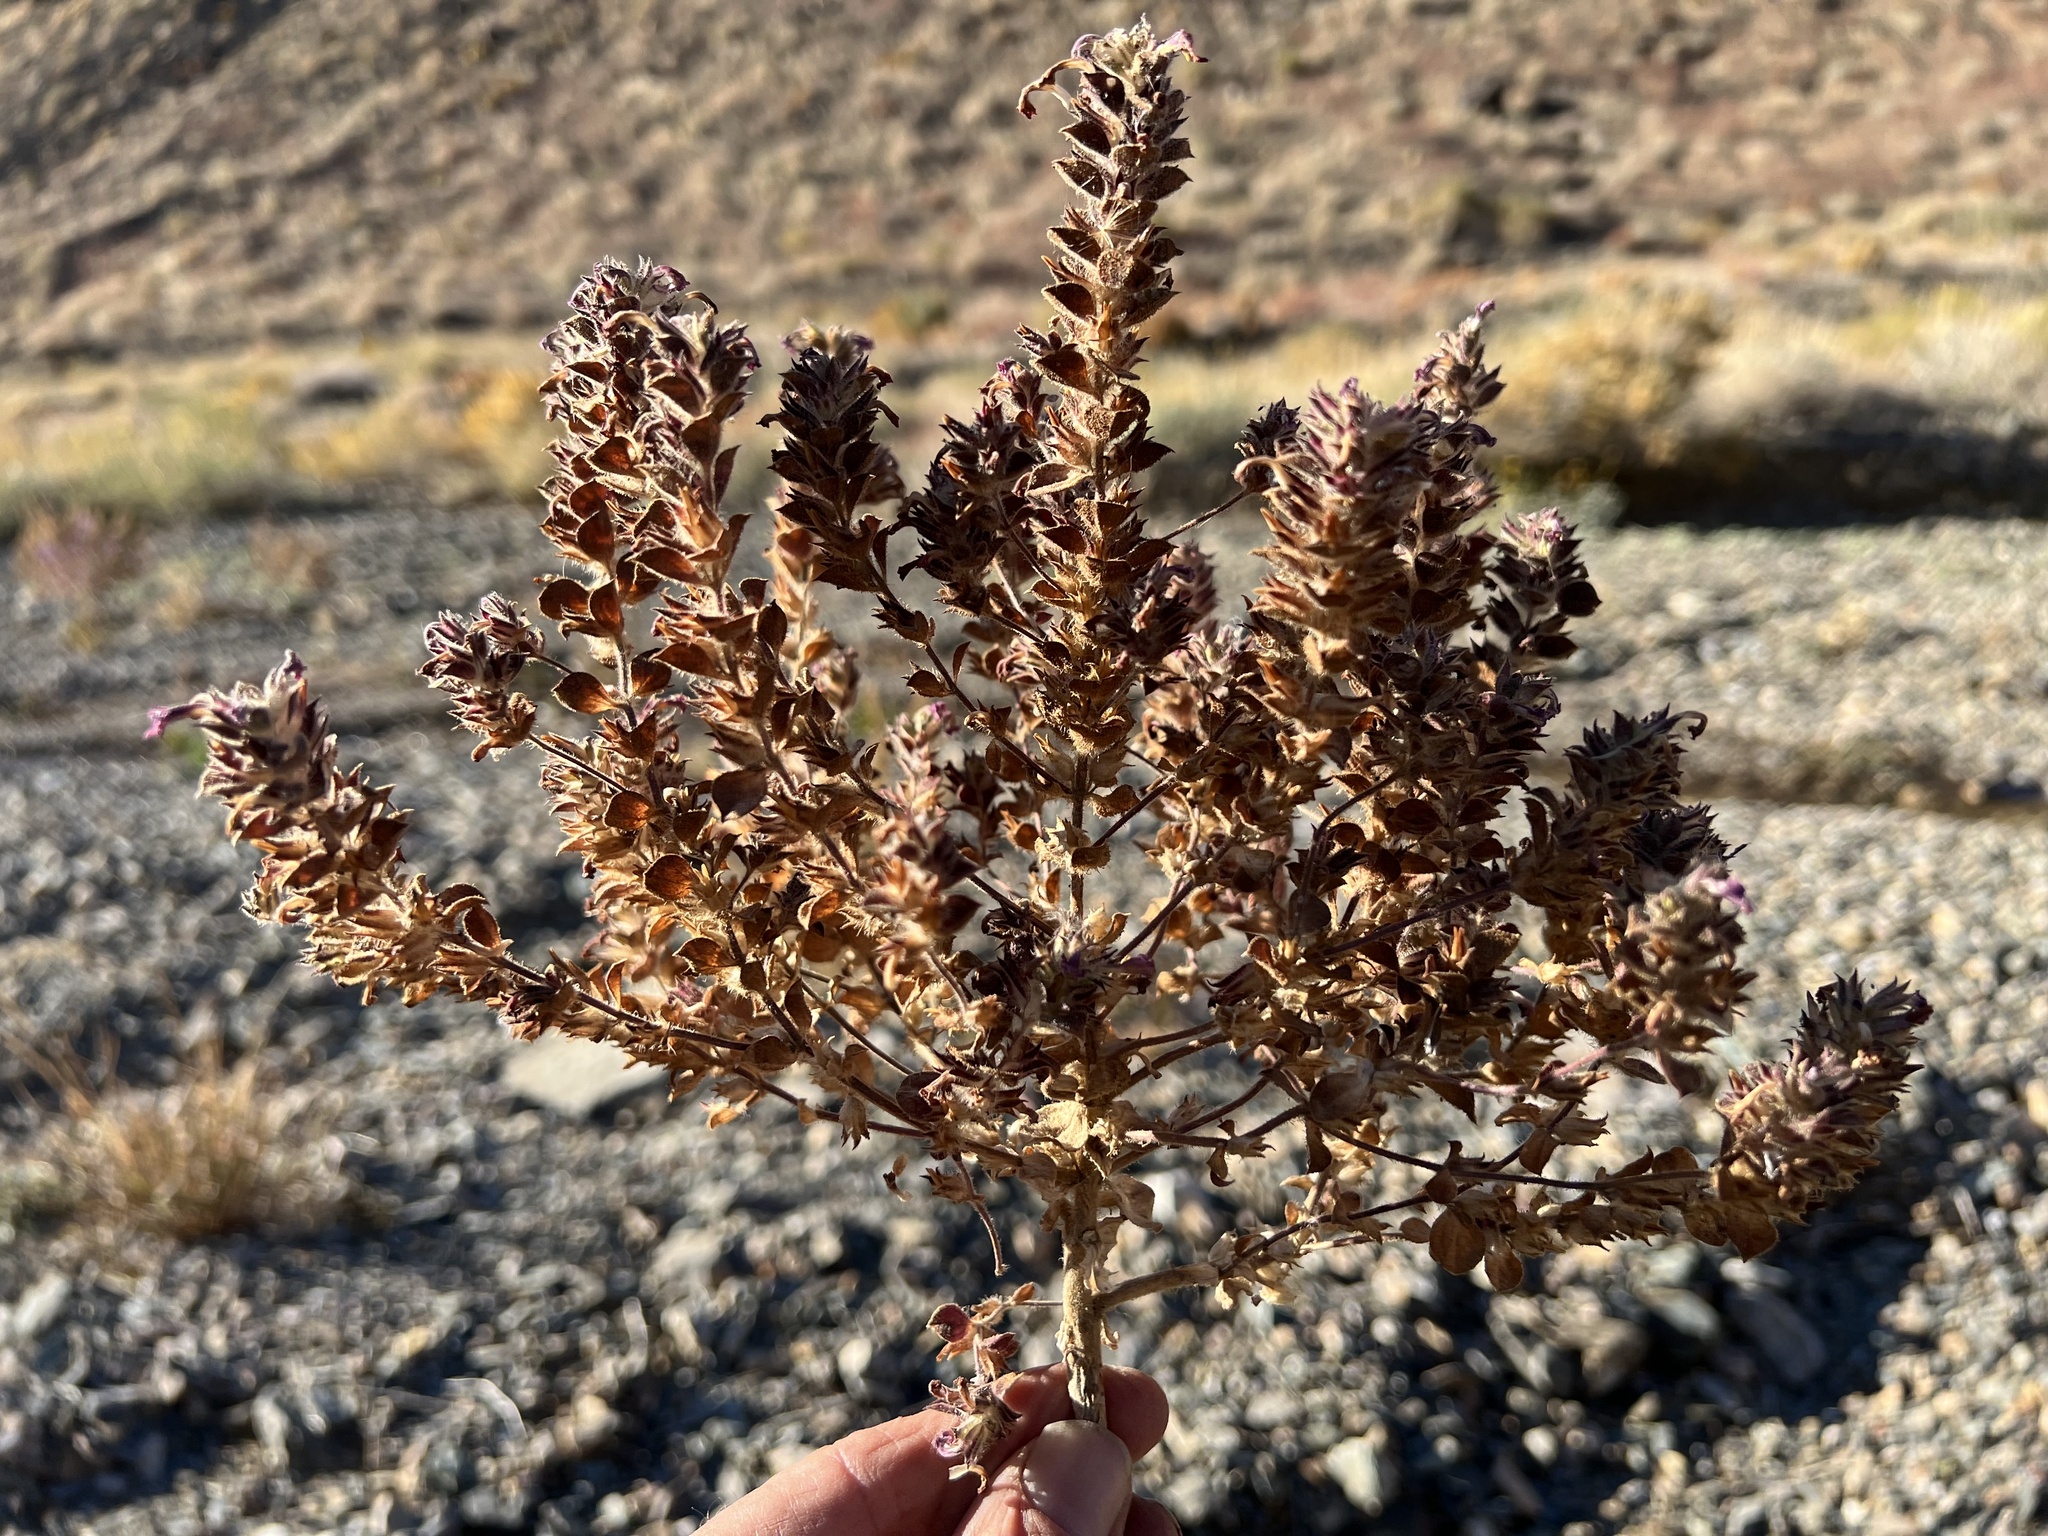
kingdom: Plantae
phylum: Tracheophyta
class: Magnoliopsida
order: Lamiales
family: Phrymaceae
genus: Diplacus
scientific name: Diplacus bigelovii
